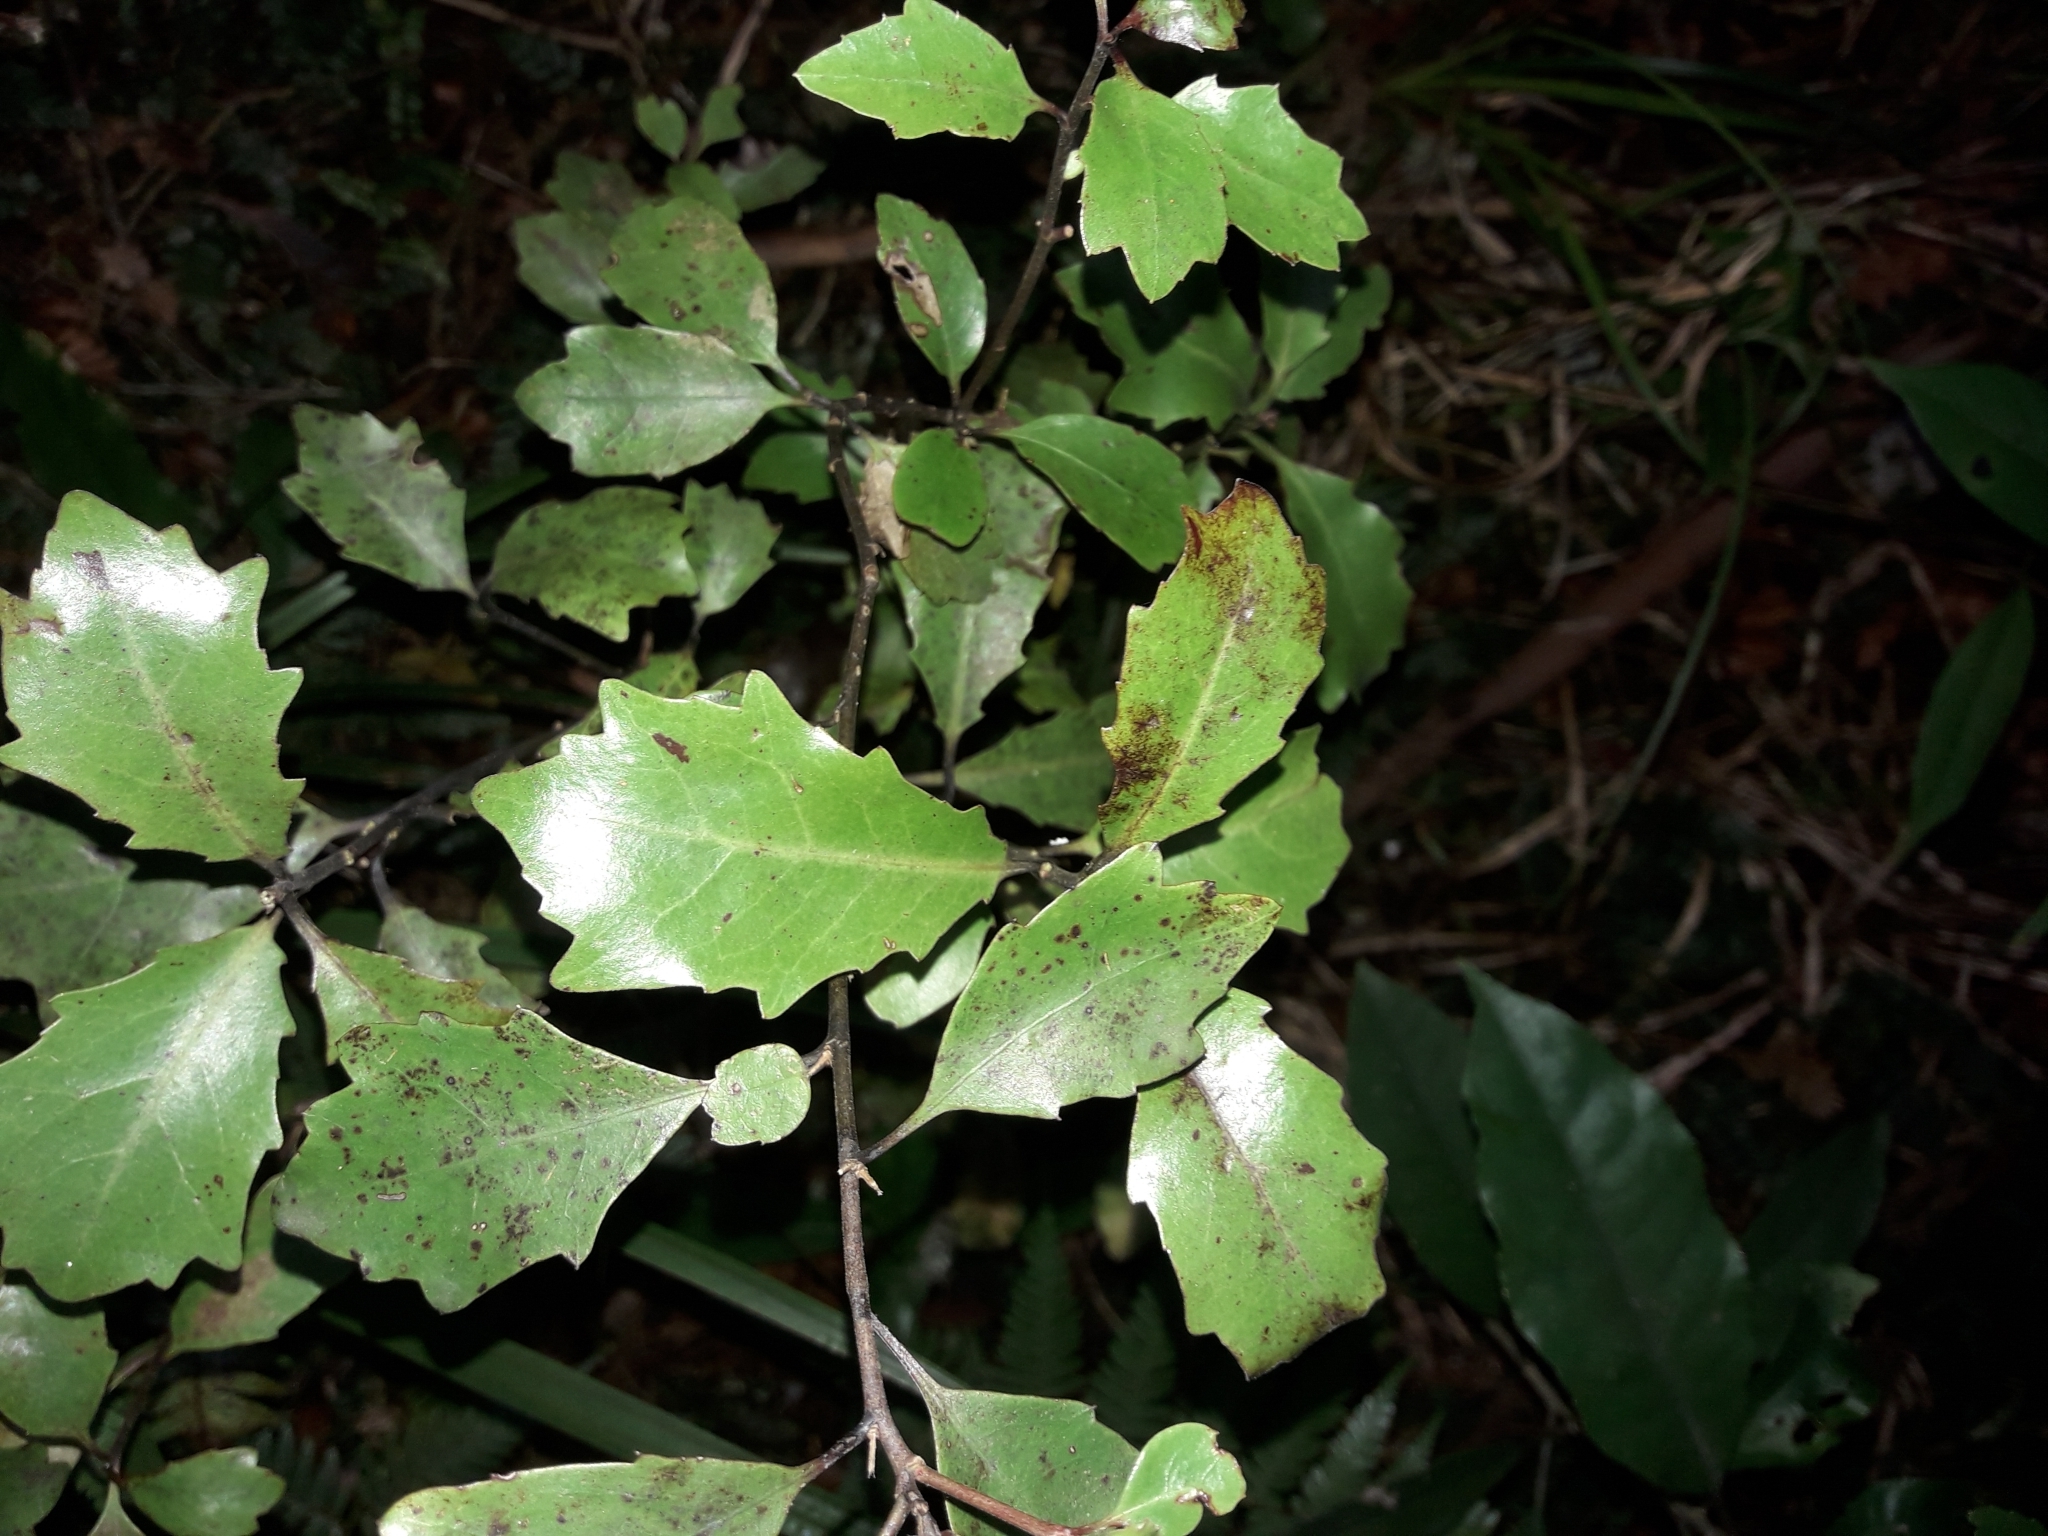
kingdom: Plantae
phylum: Tracheophyta
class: Magnoliopsida
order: Asterales
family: Alseuosmiaceae
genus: Alseuosmia
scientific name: Alseuosmia quercifolia
